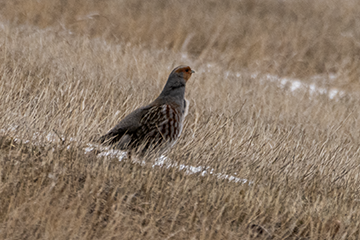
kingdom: Animalia
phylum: Chordata
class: Aves
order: Galliformes
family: Phasianidae
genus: Perdix
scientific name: Perdix perdix
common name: Grey partridge
